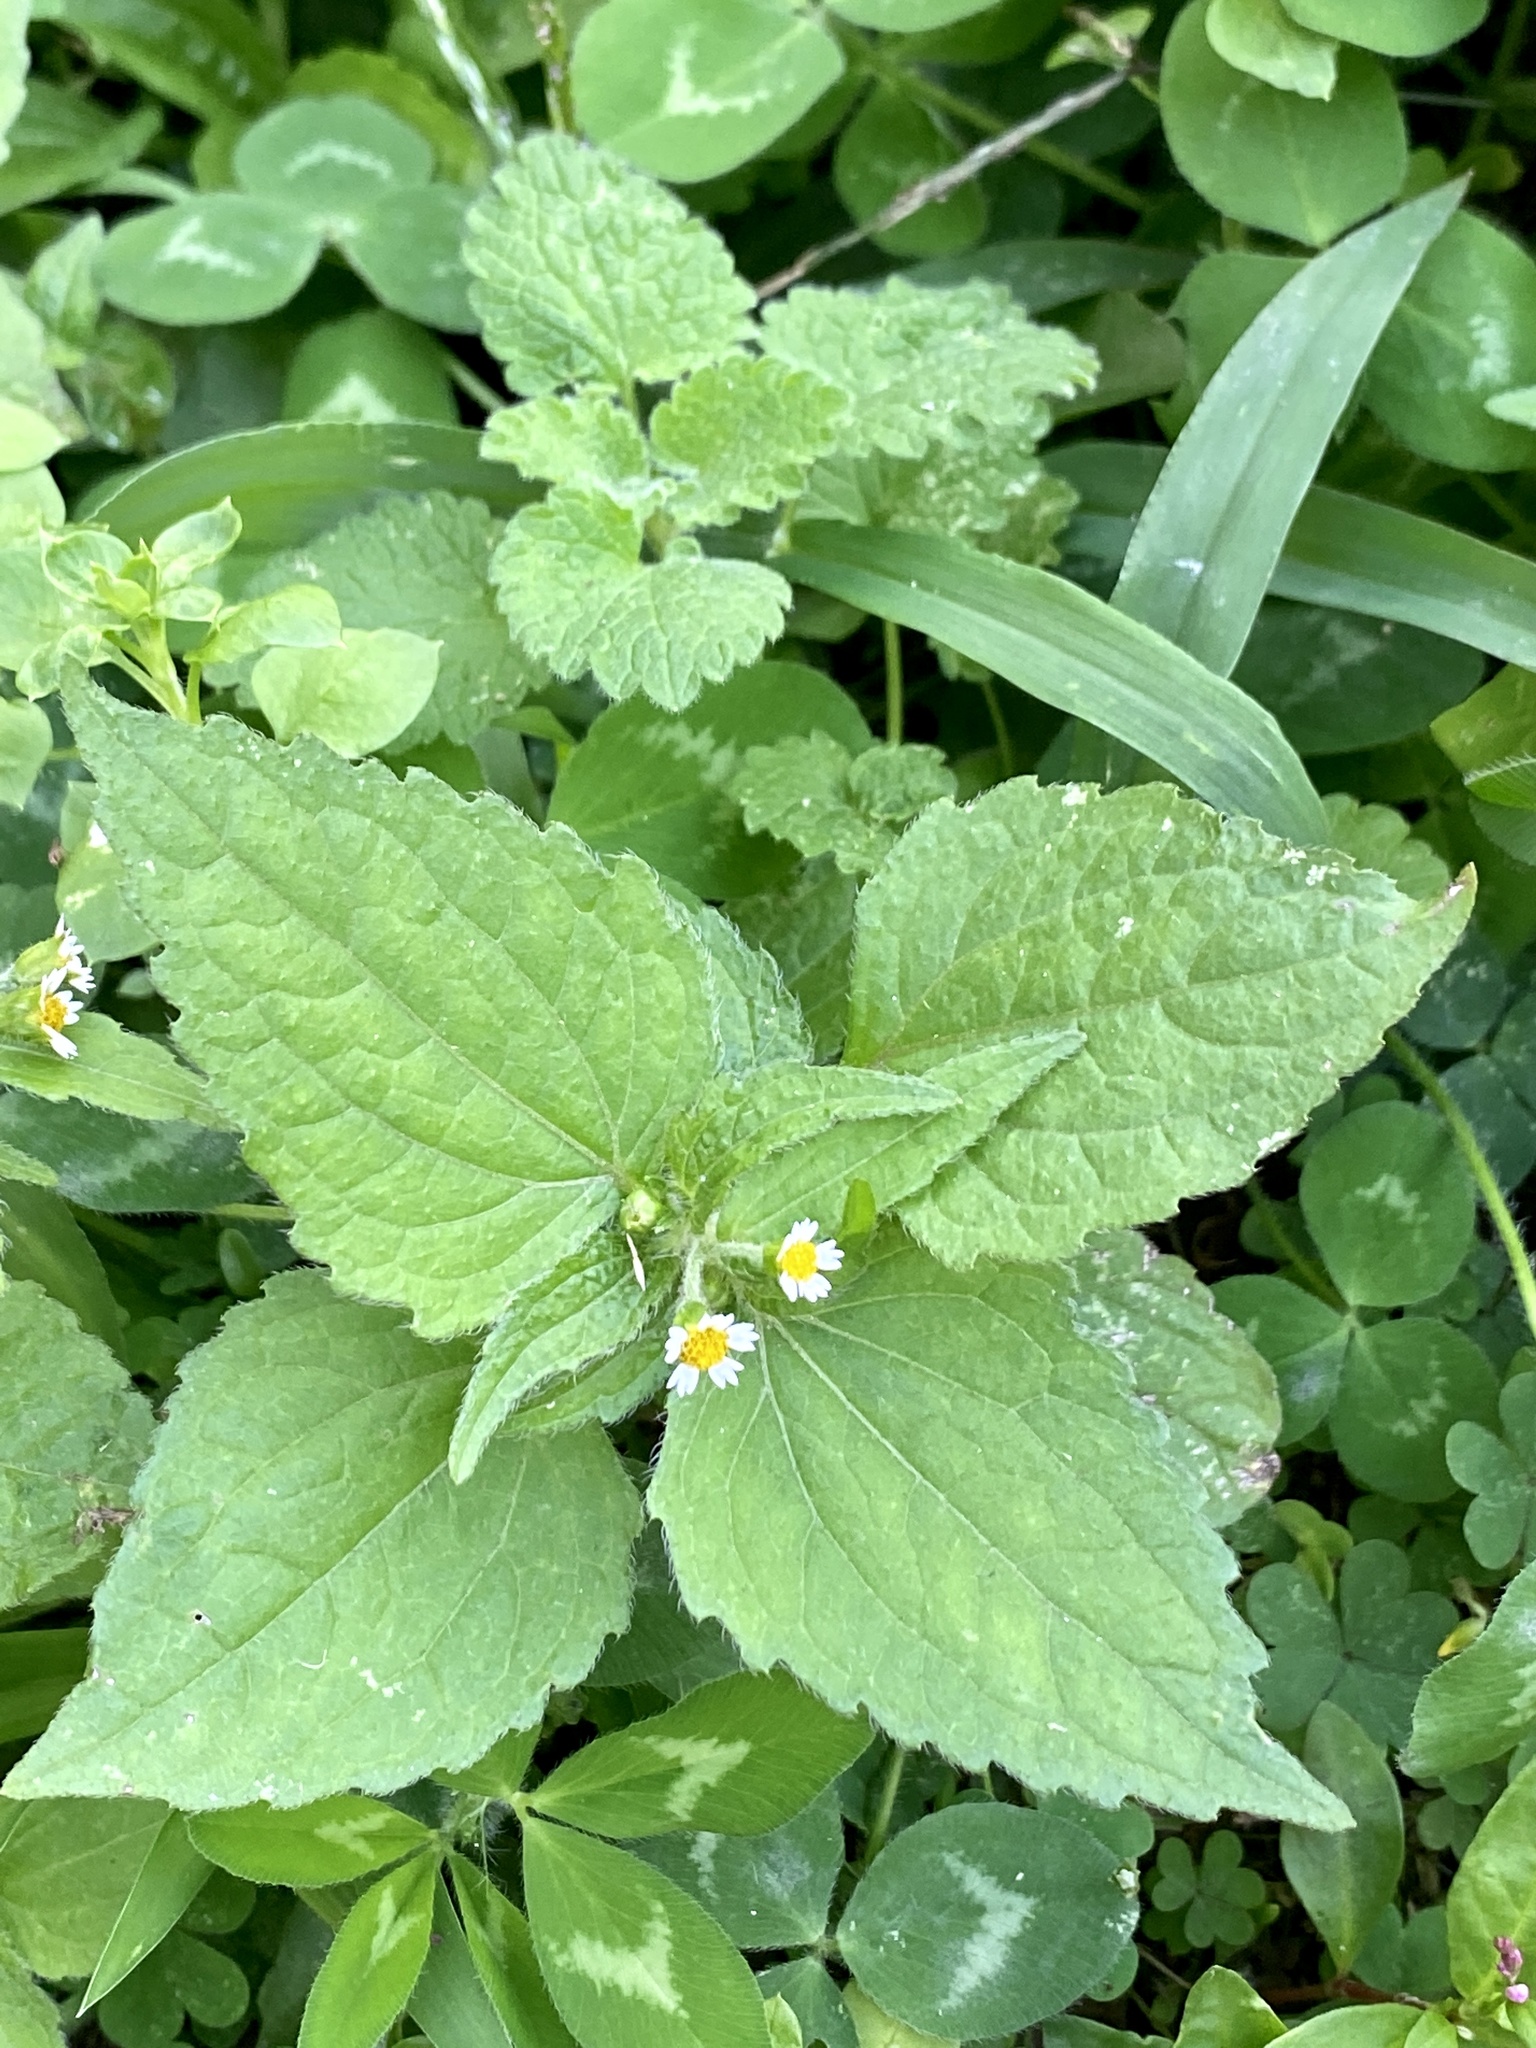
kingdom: Plantae
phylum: Tracheophyta
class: Magnoliopsida
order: Asterales
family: Asteraceae
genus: Galinsoga
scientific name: Galinsoga quadriradiata
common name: Shaggy soldier
